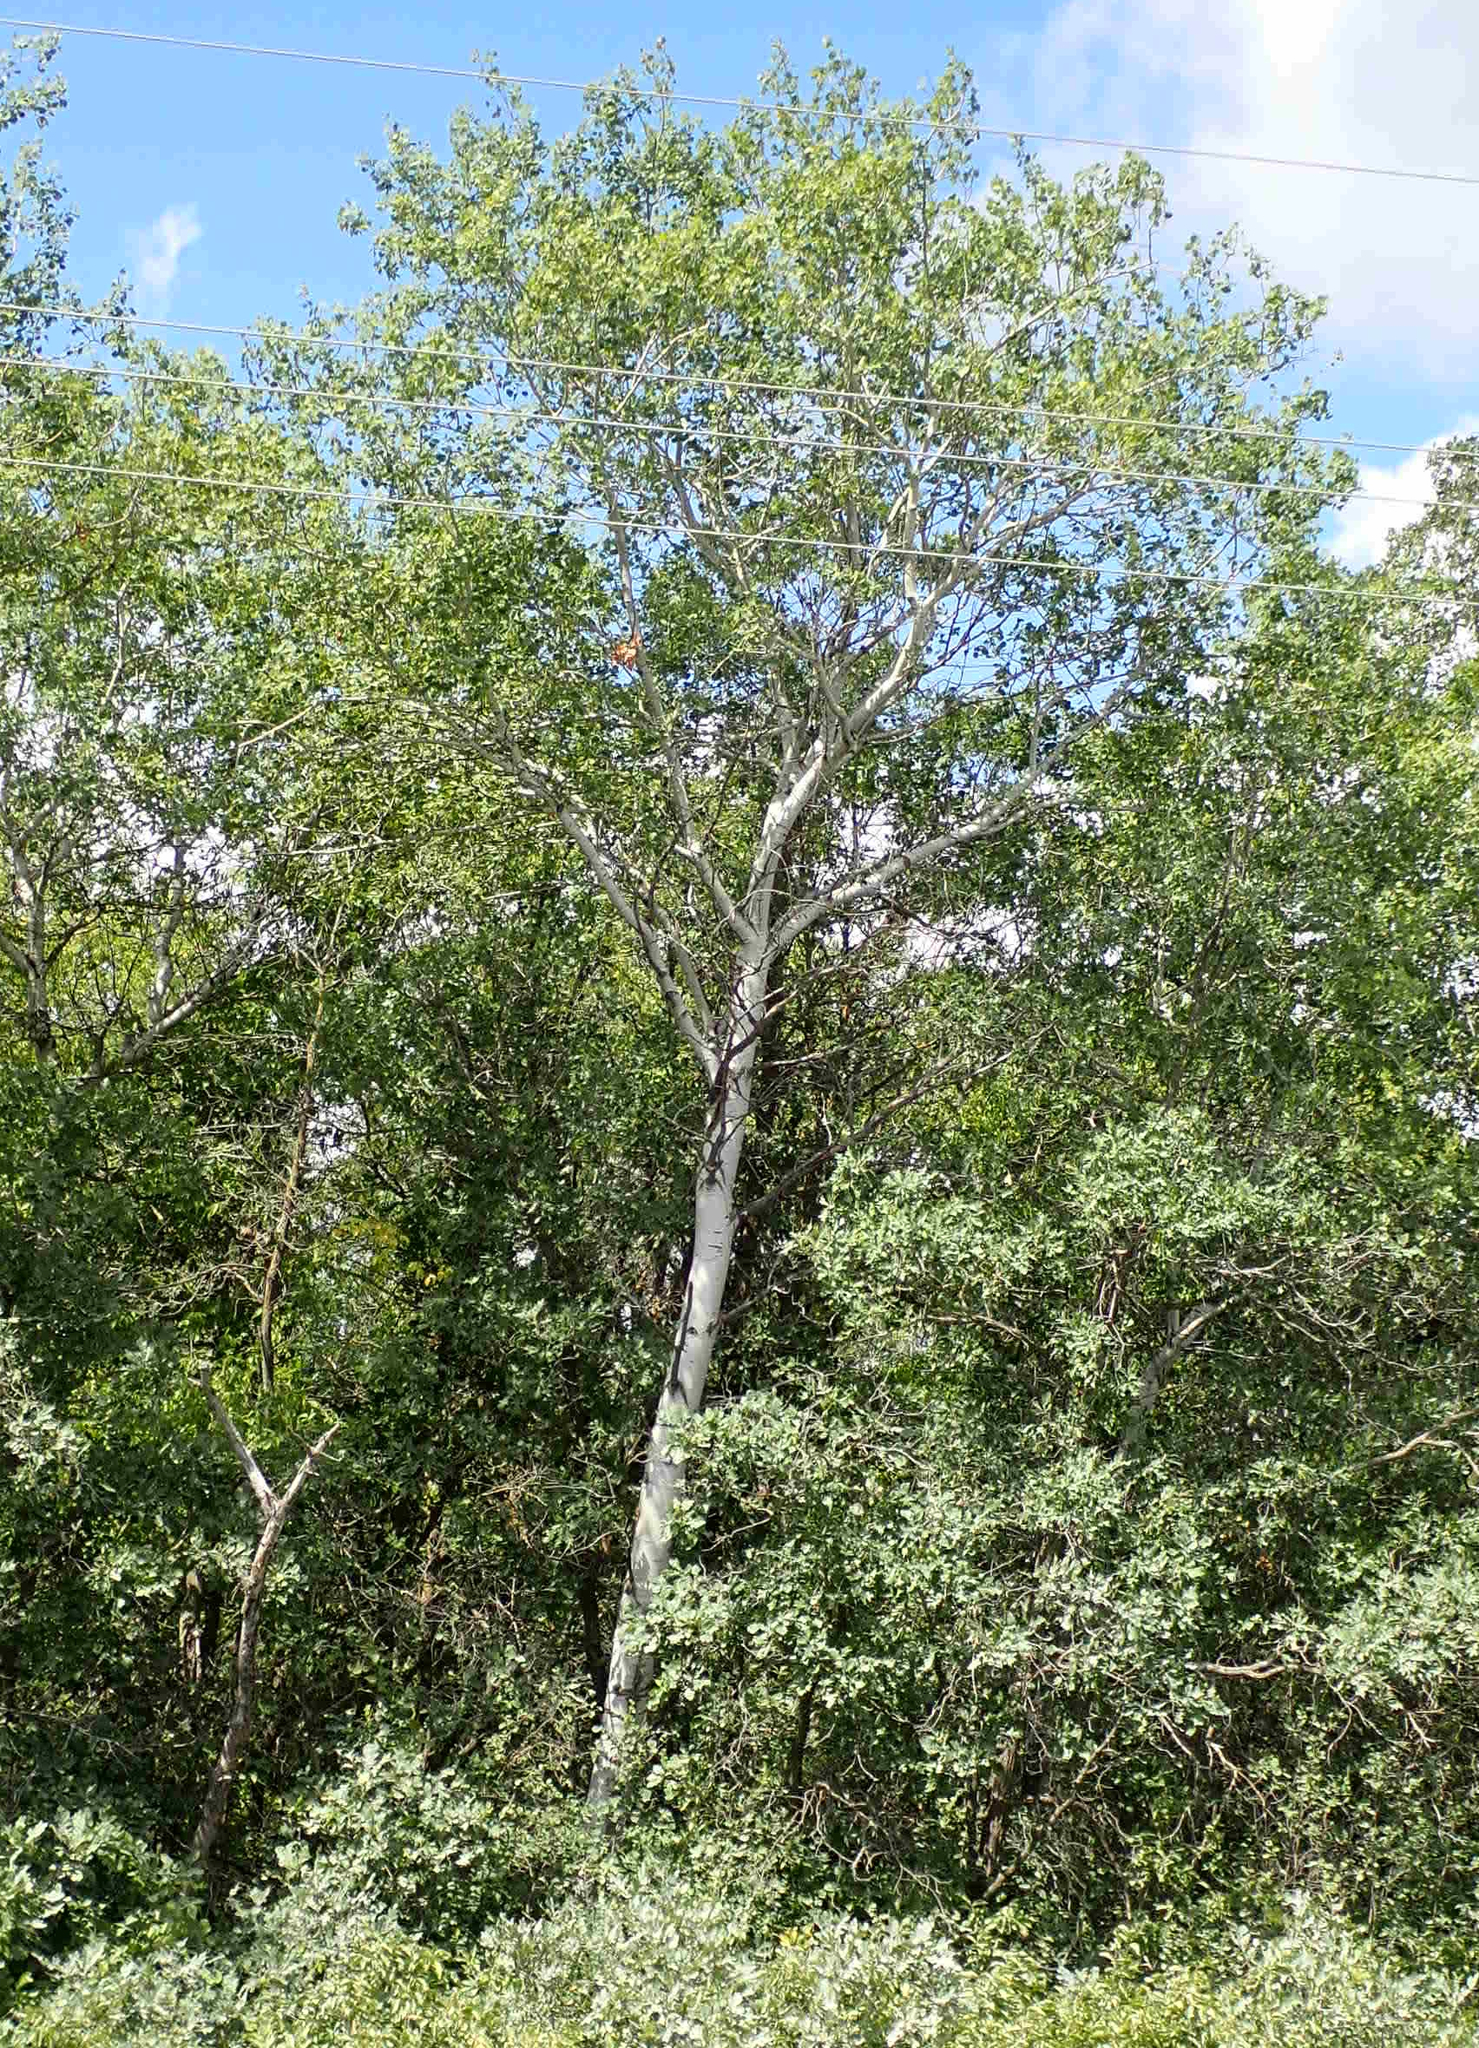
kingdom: Plantae
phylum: Tracheophyta
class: Magnoliopsida
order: Malpighiales
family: Salicaceae
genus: Populus
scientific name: Populus tremuloides
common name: Quaking aspen
